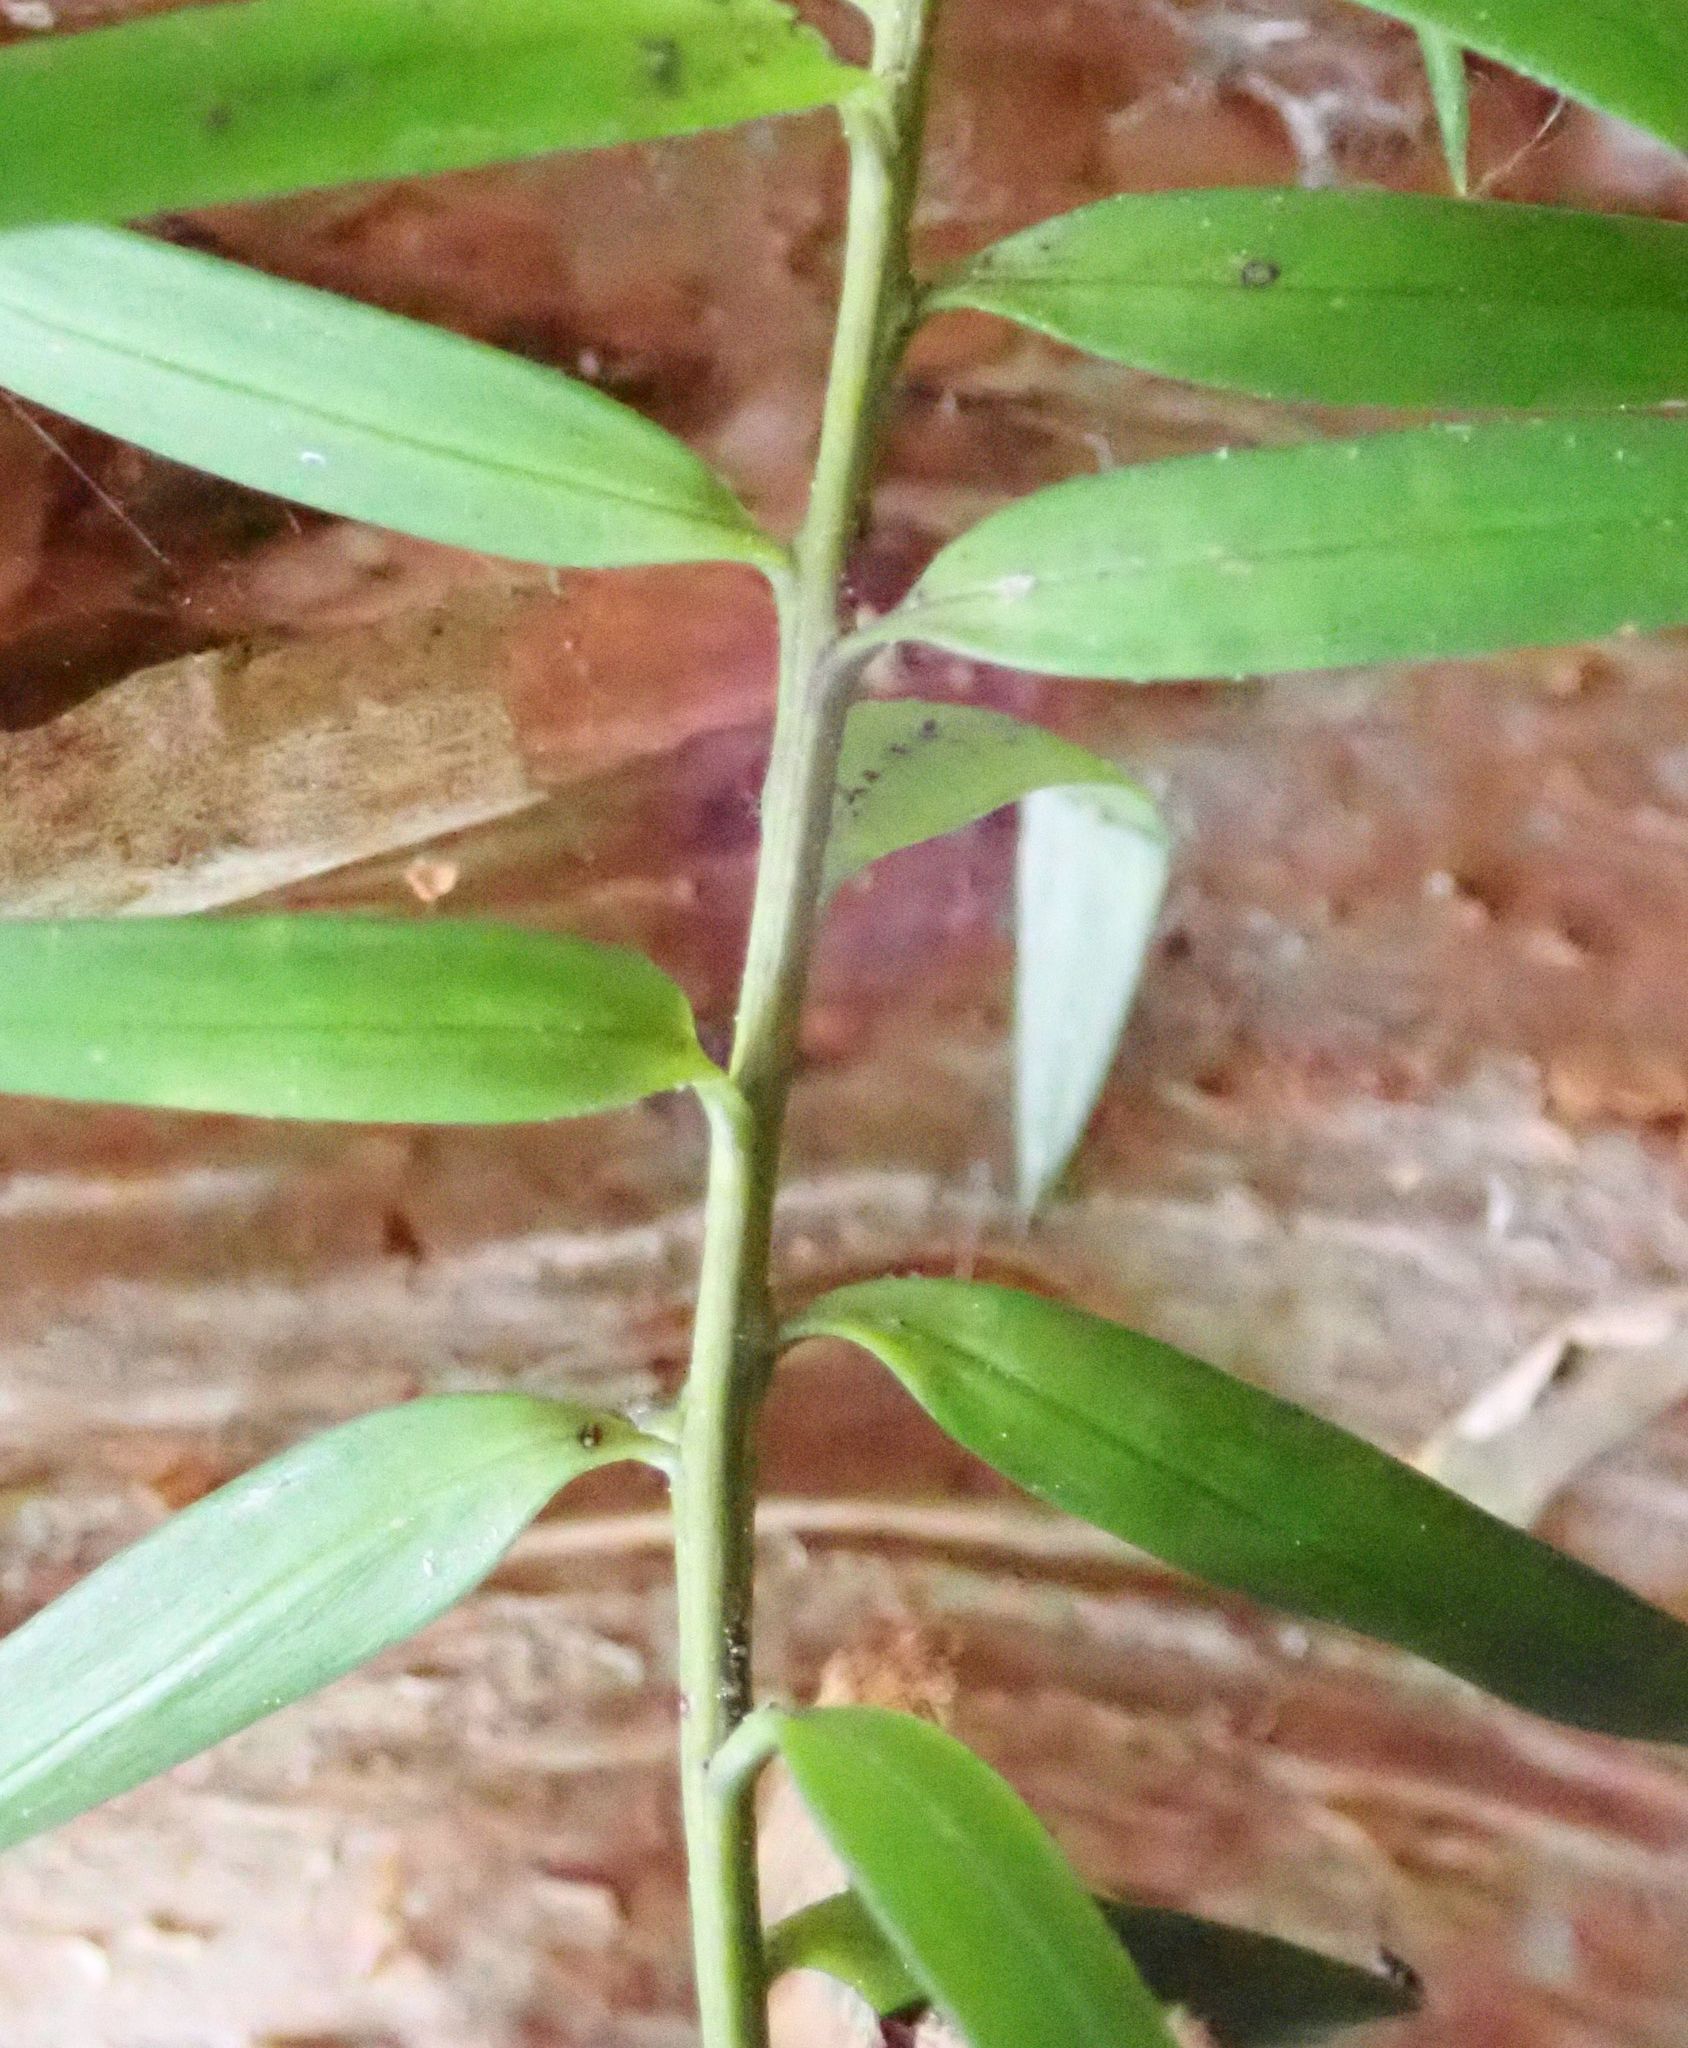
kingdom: Plantae
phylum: Tracheophyta
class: Pinopsida
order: Pinales
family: Podocarpaceae
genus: Podocarpus
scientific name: Podocarpus laetus
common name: Hall's totara
